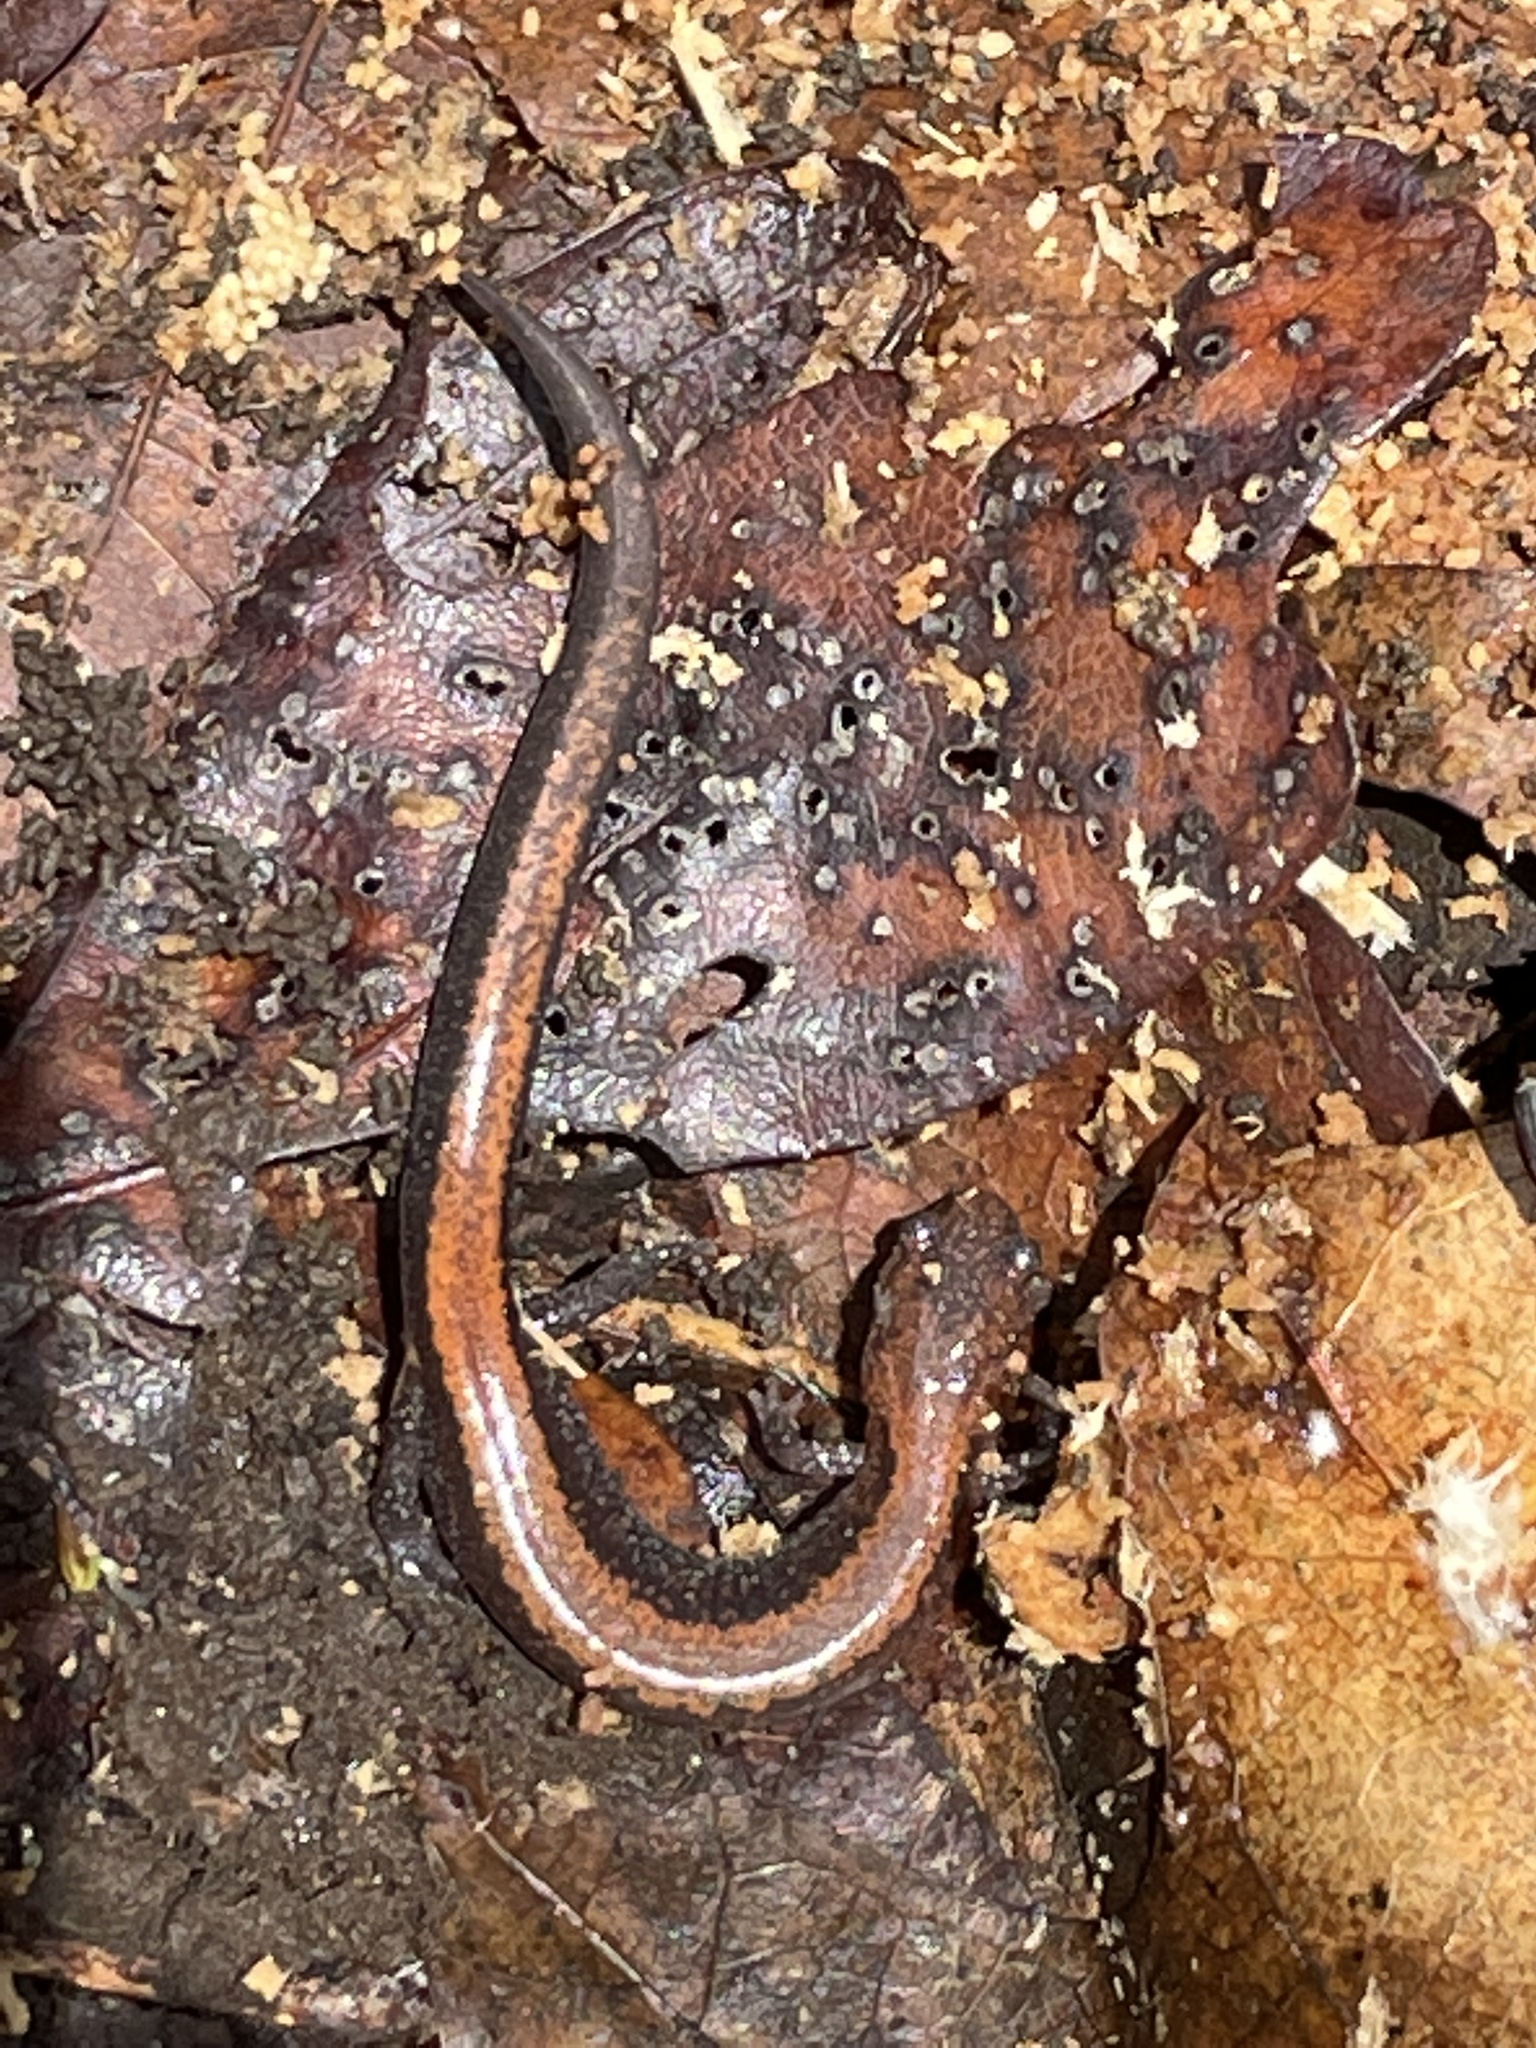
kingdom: Animalia
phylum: Chordata
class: Amphibia
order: Caudata
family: Plethodontidae
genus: Plethodon
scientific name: Plethodon cinereus
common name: Redback salamander
